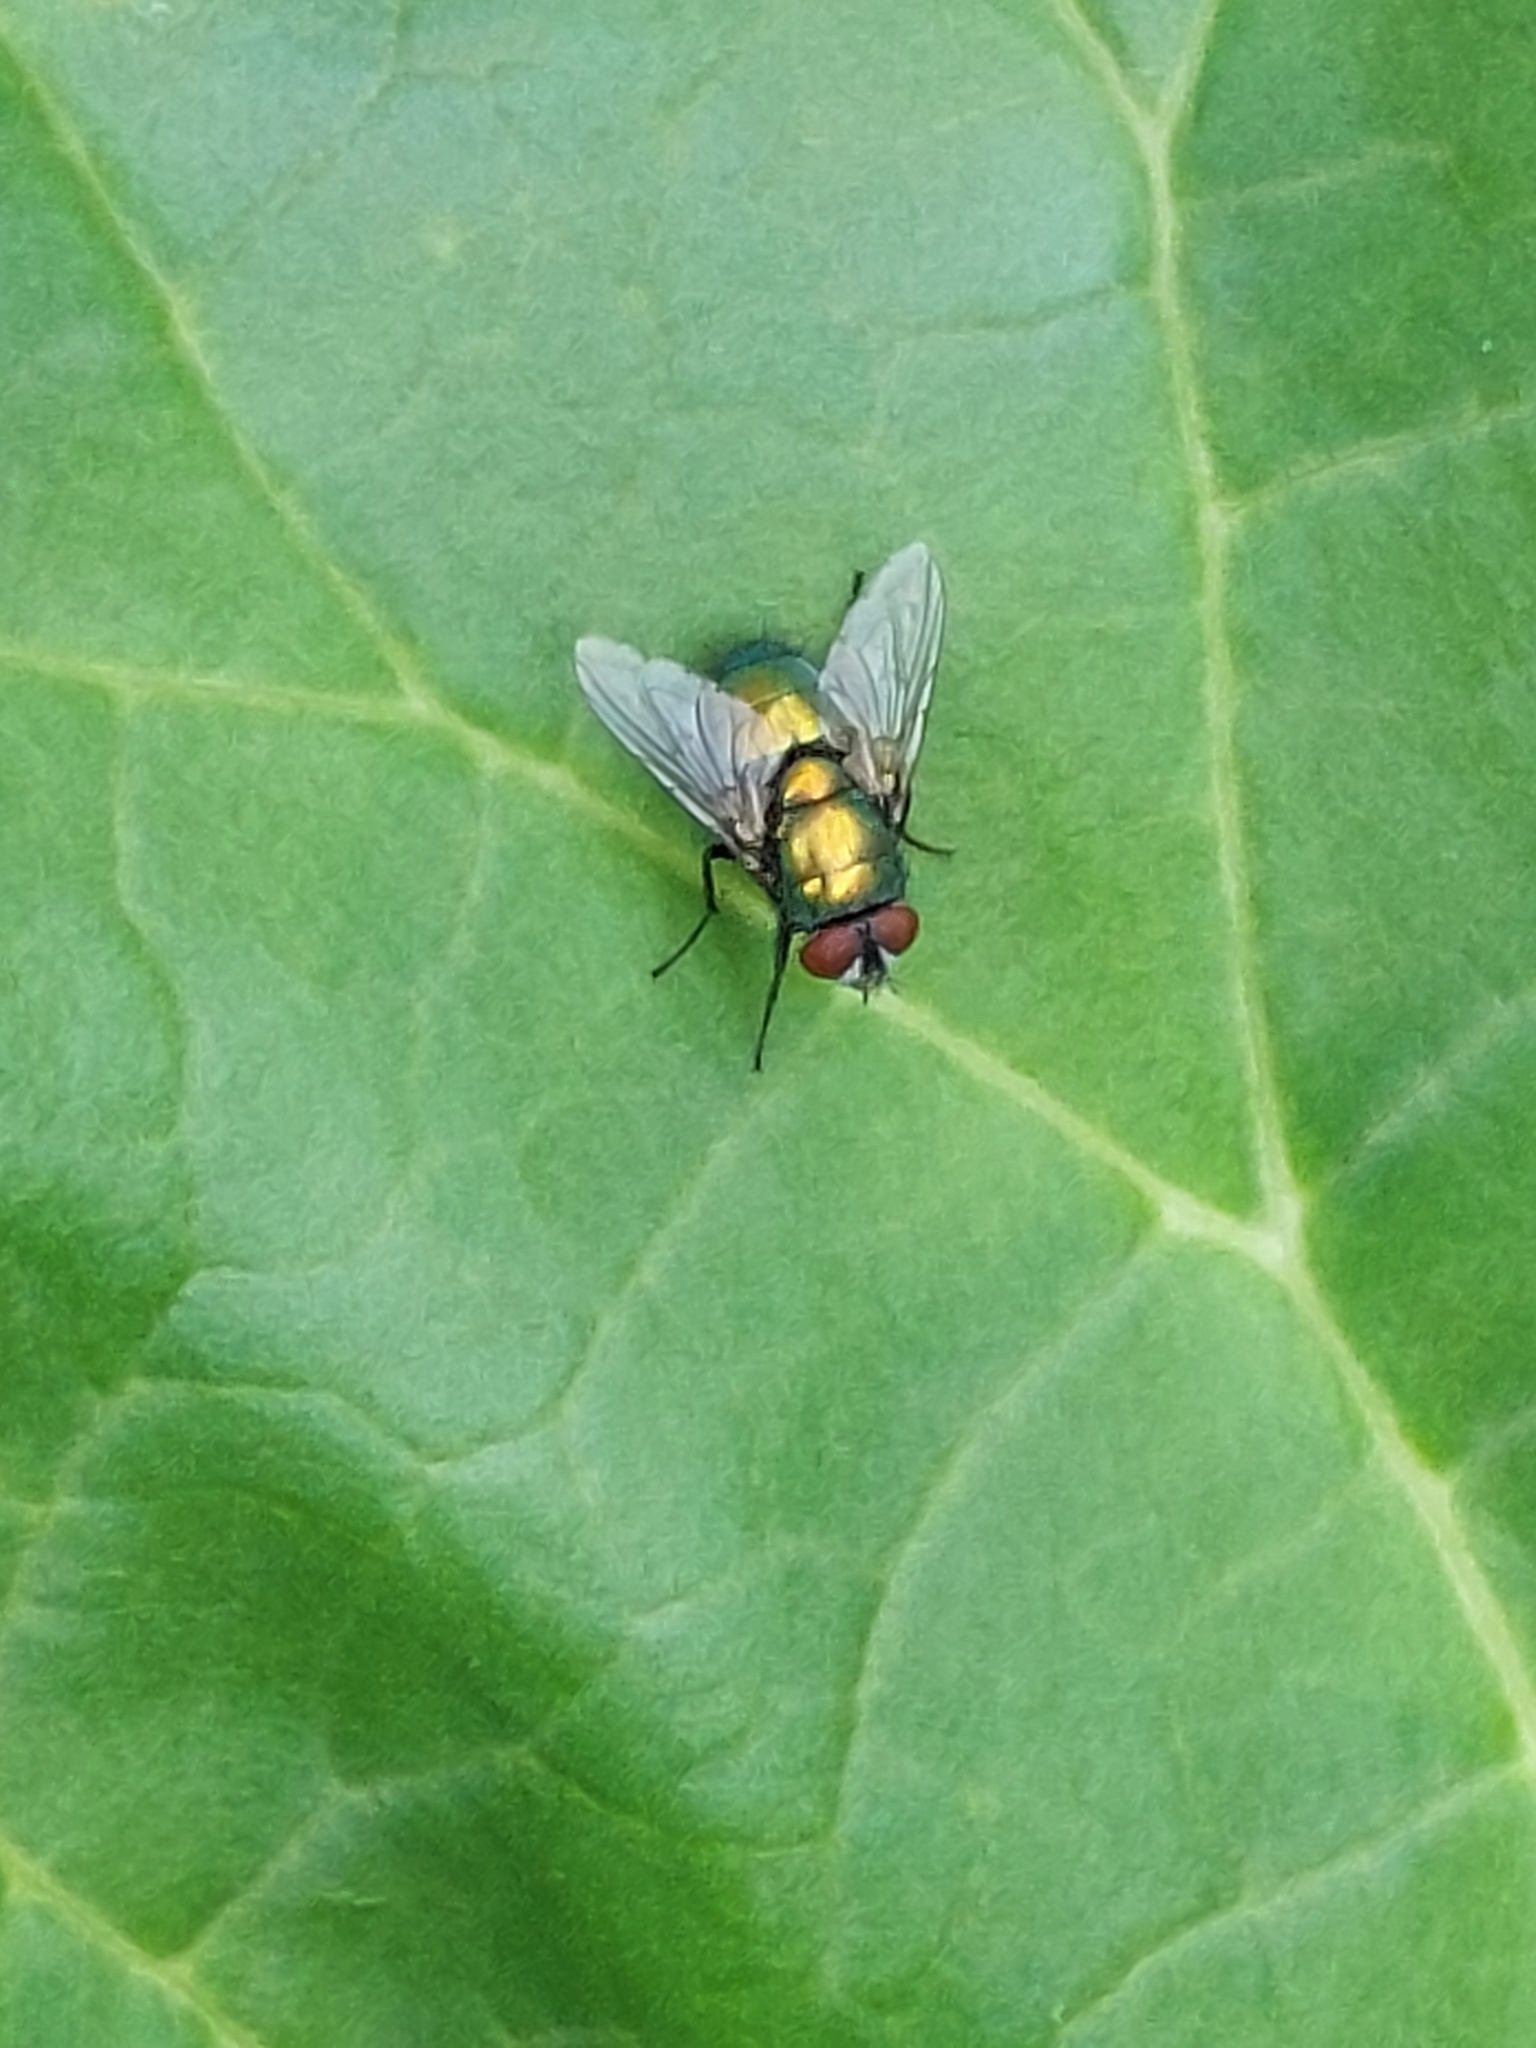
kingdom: Animalia
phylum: Arthropoda
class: Insecta
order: Diptera
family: Calliphoridae
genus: Lucilia
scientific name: Lucilia
